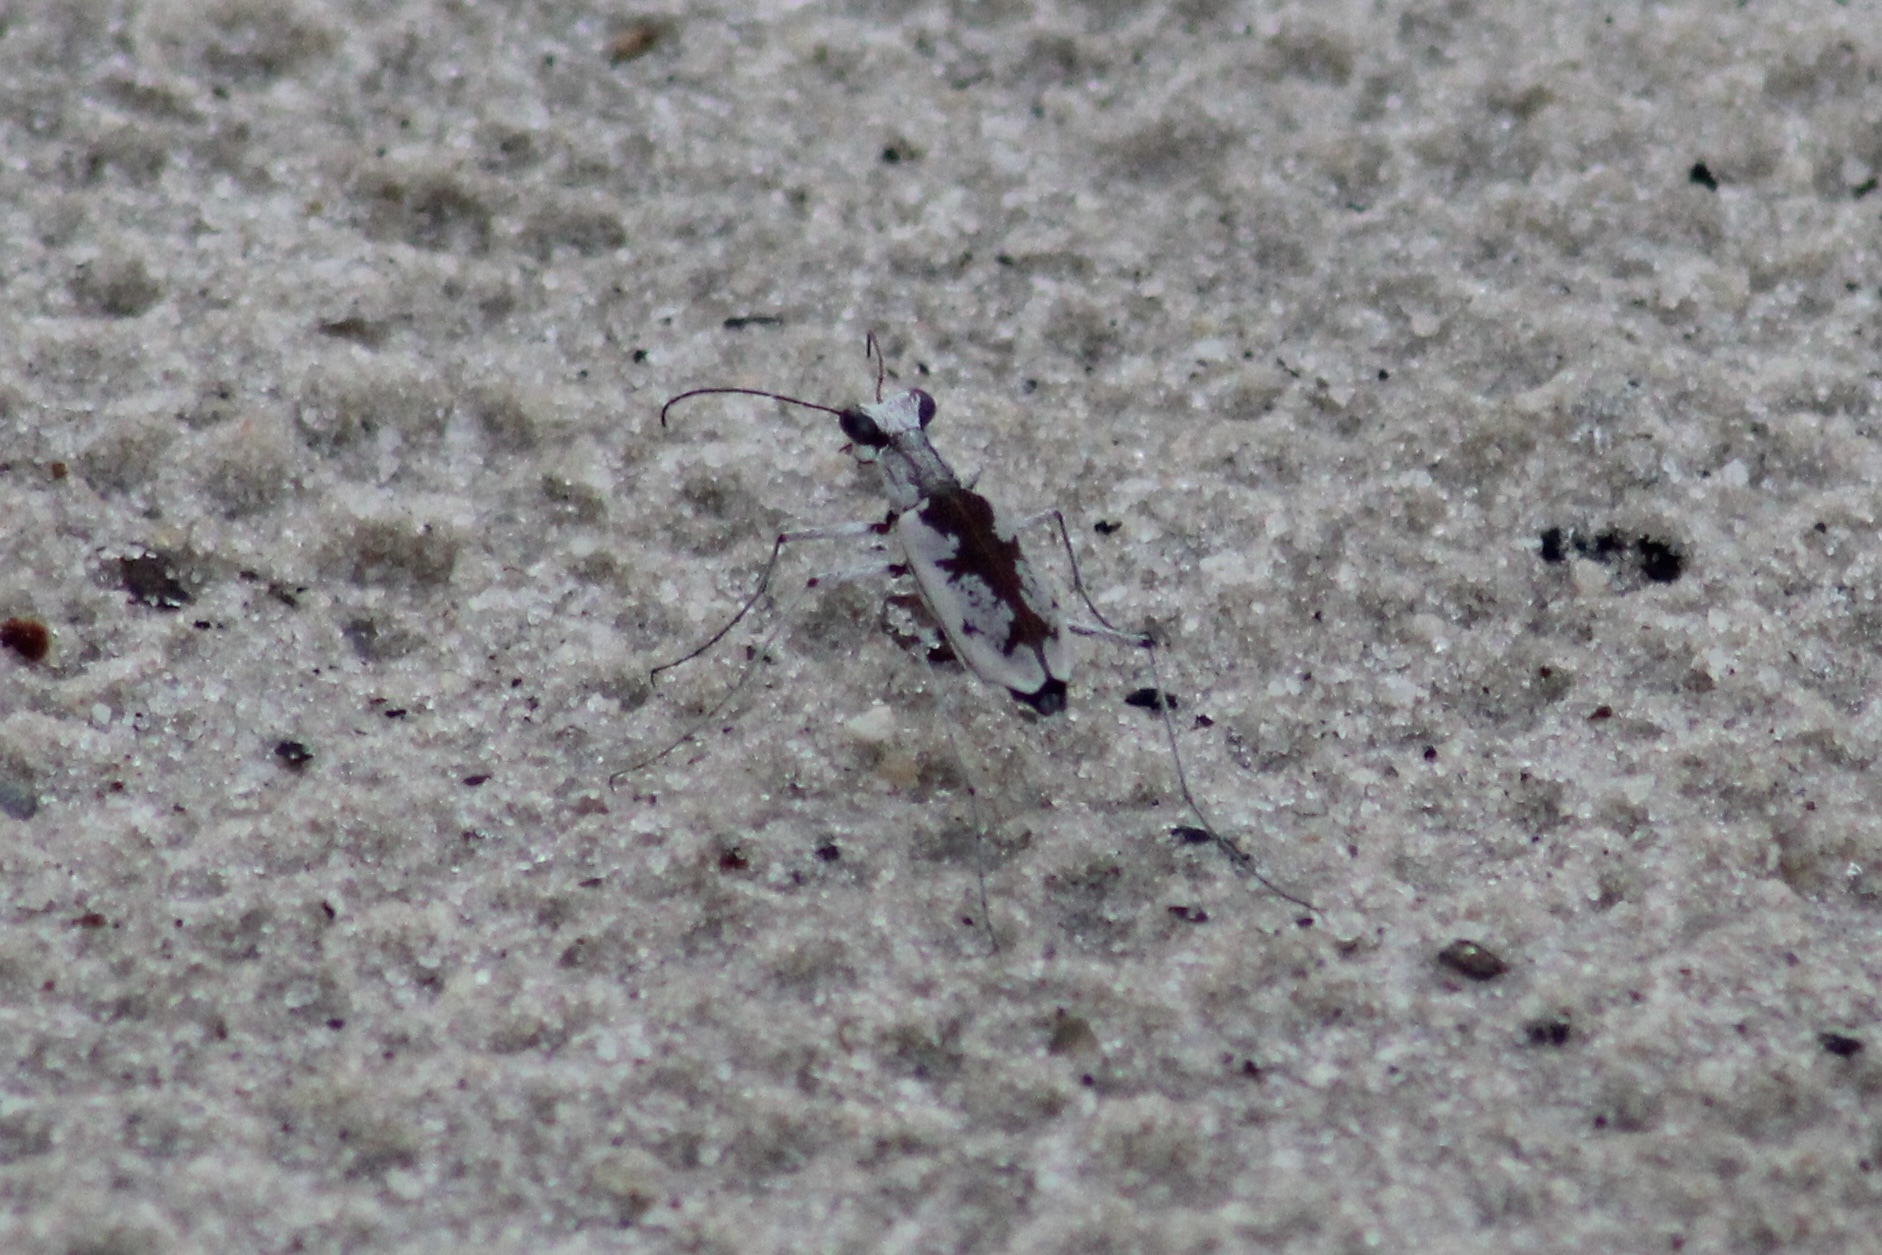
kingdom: Animalia
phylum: Arthropoda
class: Insecta
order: Coleoptera
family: Carabidae
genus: Ellipsoptera
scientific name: Ellipsoptera hirtilabris
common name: Moustached tiger beetle
